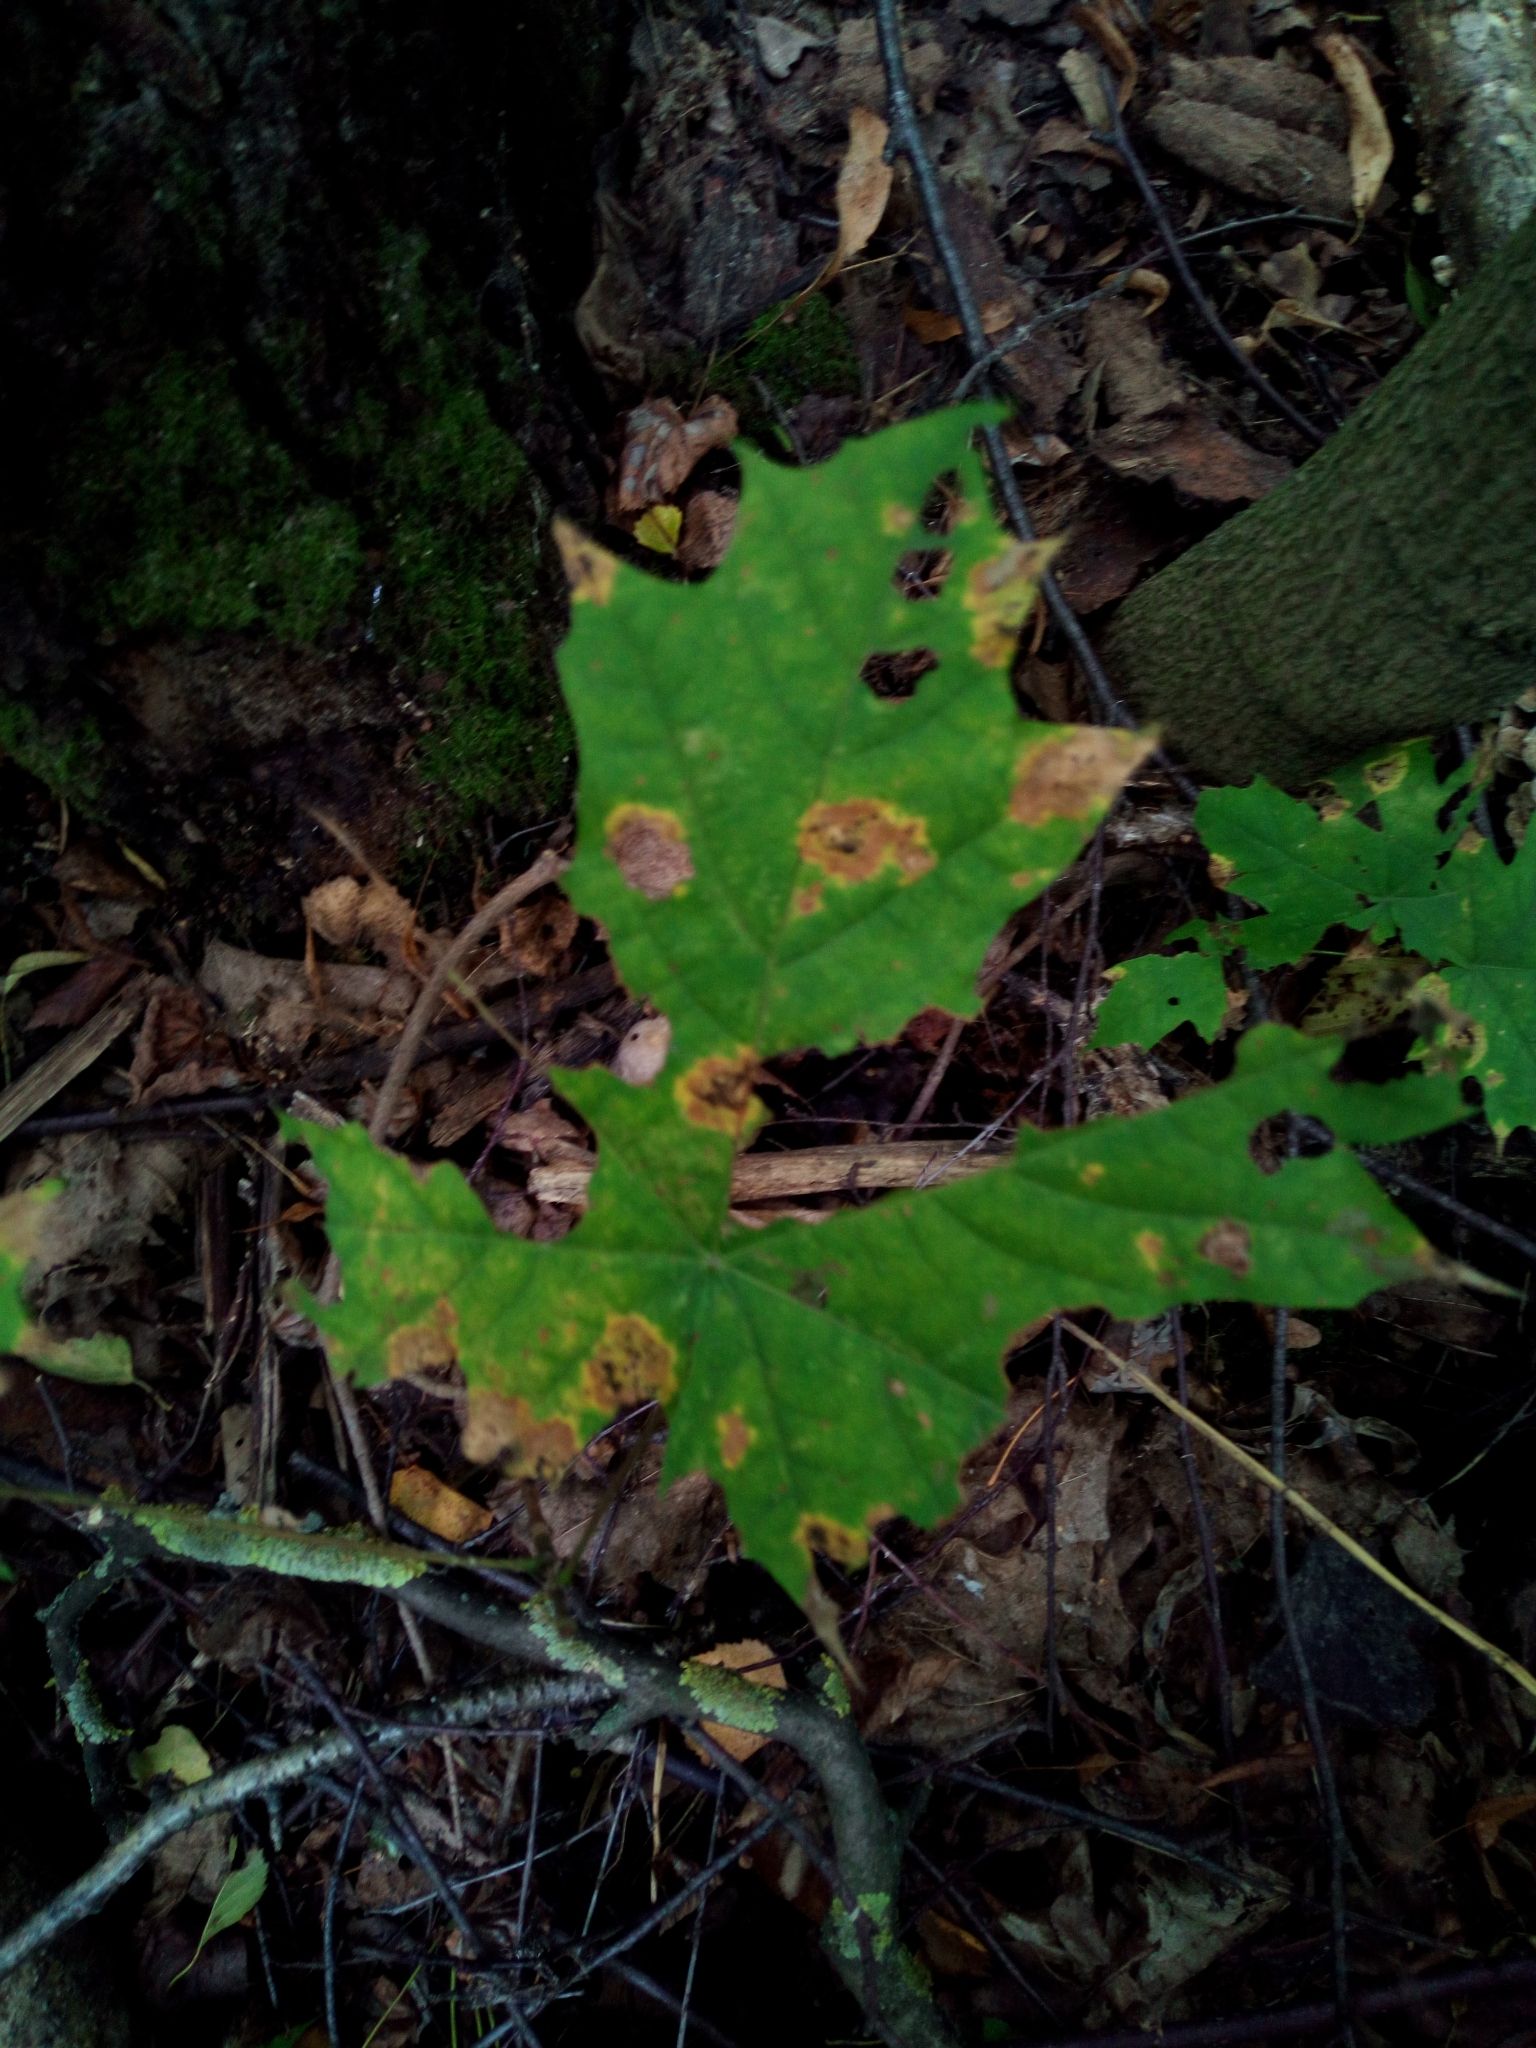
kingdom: Fungi
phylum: Ascomycota
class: Leotiomycetes
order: Rhytismatales
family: Rhytismataceae
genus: Rhytisma
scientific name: Rhytisma acerinum
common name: European tar spot
